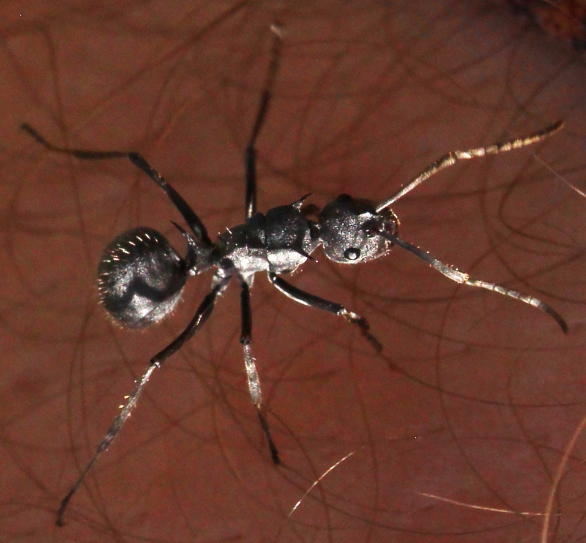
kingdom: Animalia
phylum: Arthropoda
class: Insecta
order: Hymenoptera
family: Formicidae
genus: Polyrhachis
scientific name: Polyrhachis schistacea
